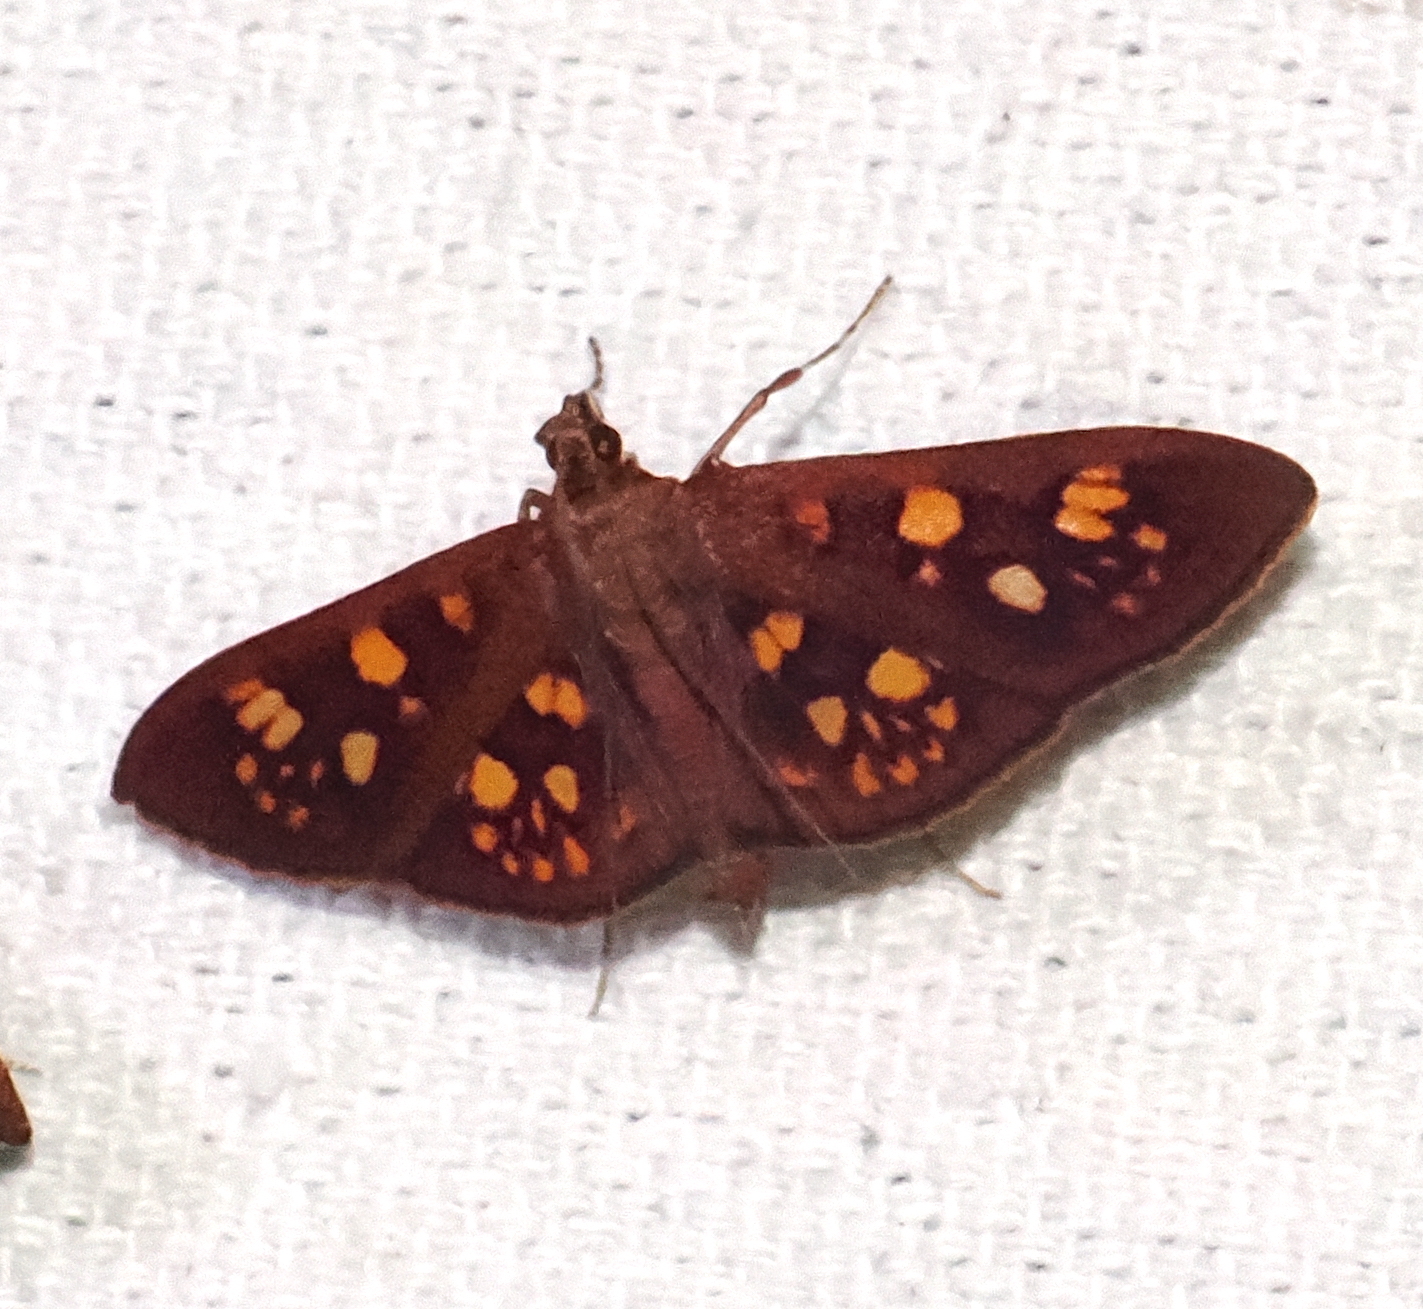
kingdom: Animalia
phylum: Arthropoda
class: Insecta
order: Lepidoptera
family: Crambidae
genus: Trithyris
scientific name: Trithyris Prenesta fenestrinalis
